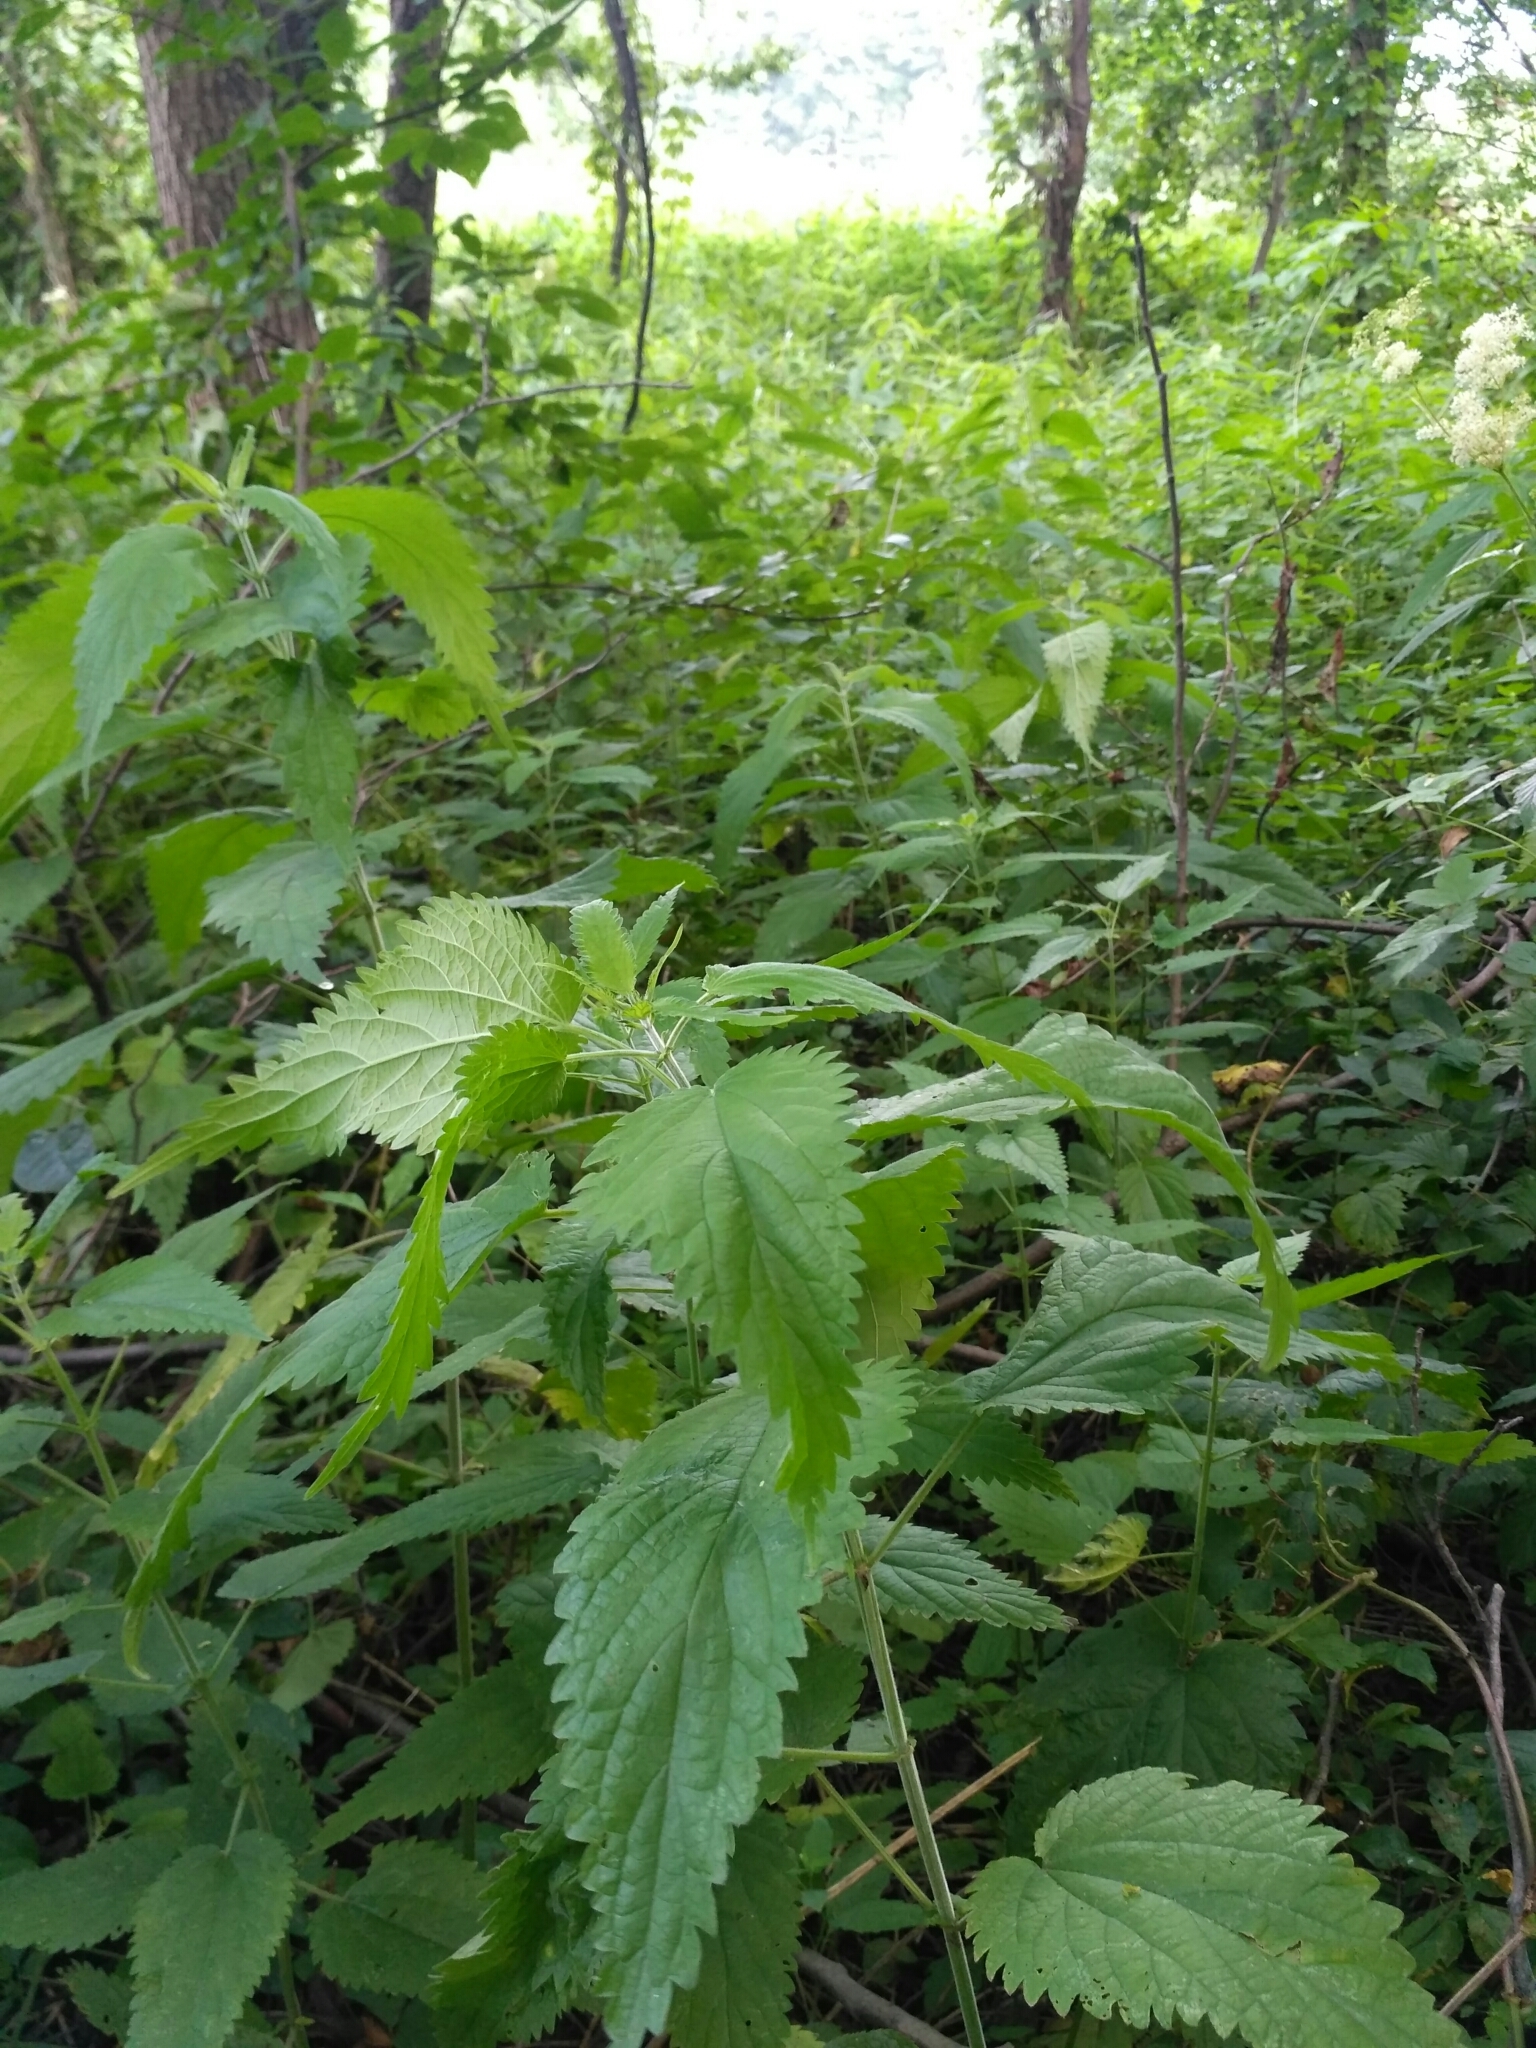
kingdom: Plantae
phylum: Tracheophyta
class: Magnoliopsida
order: Rosales
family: Urticaceae
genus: Urtica
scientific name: Urtica galeopsifolia
